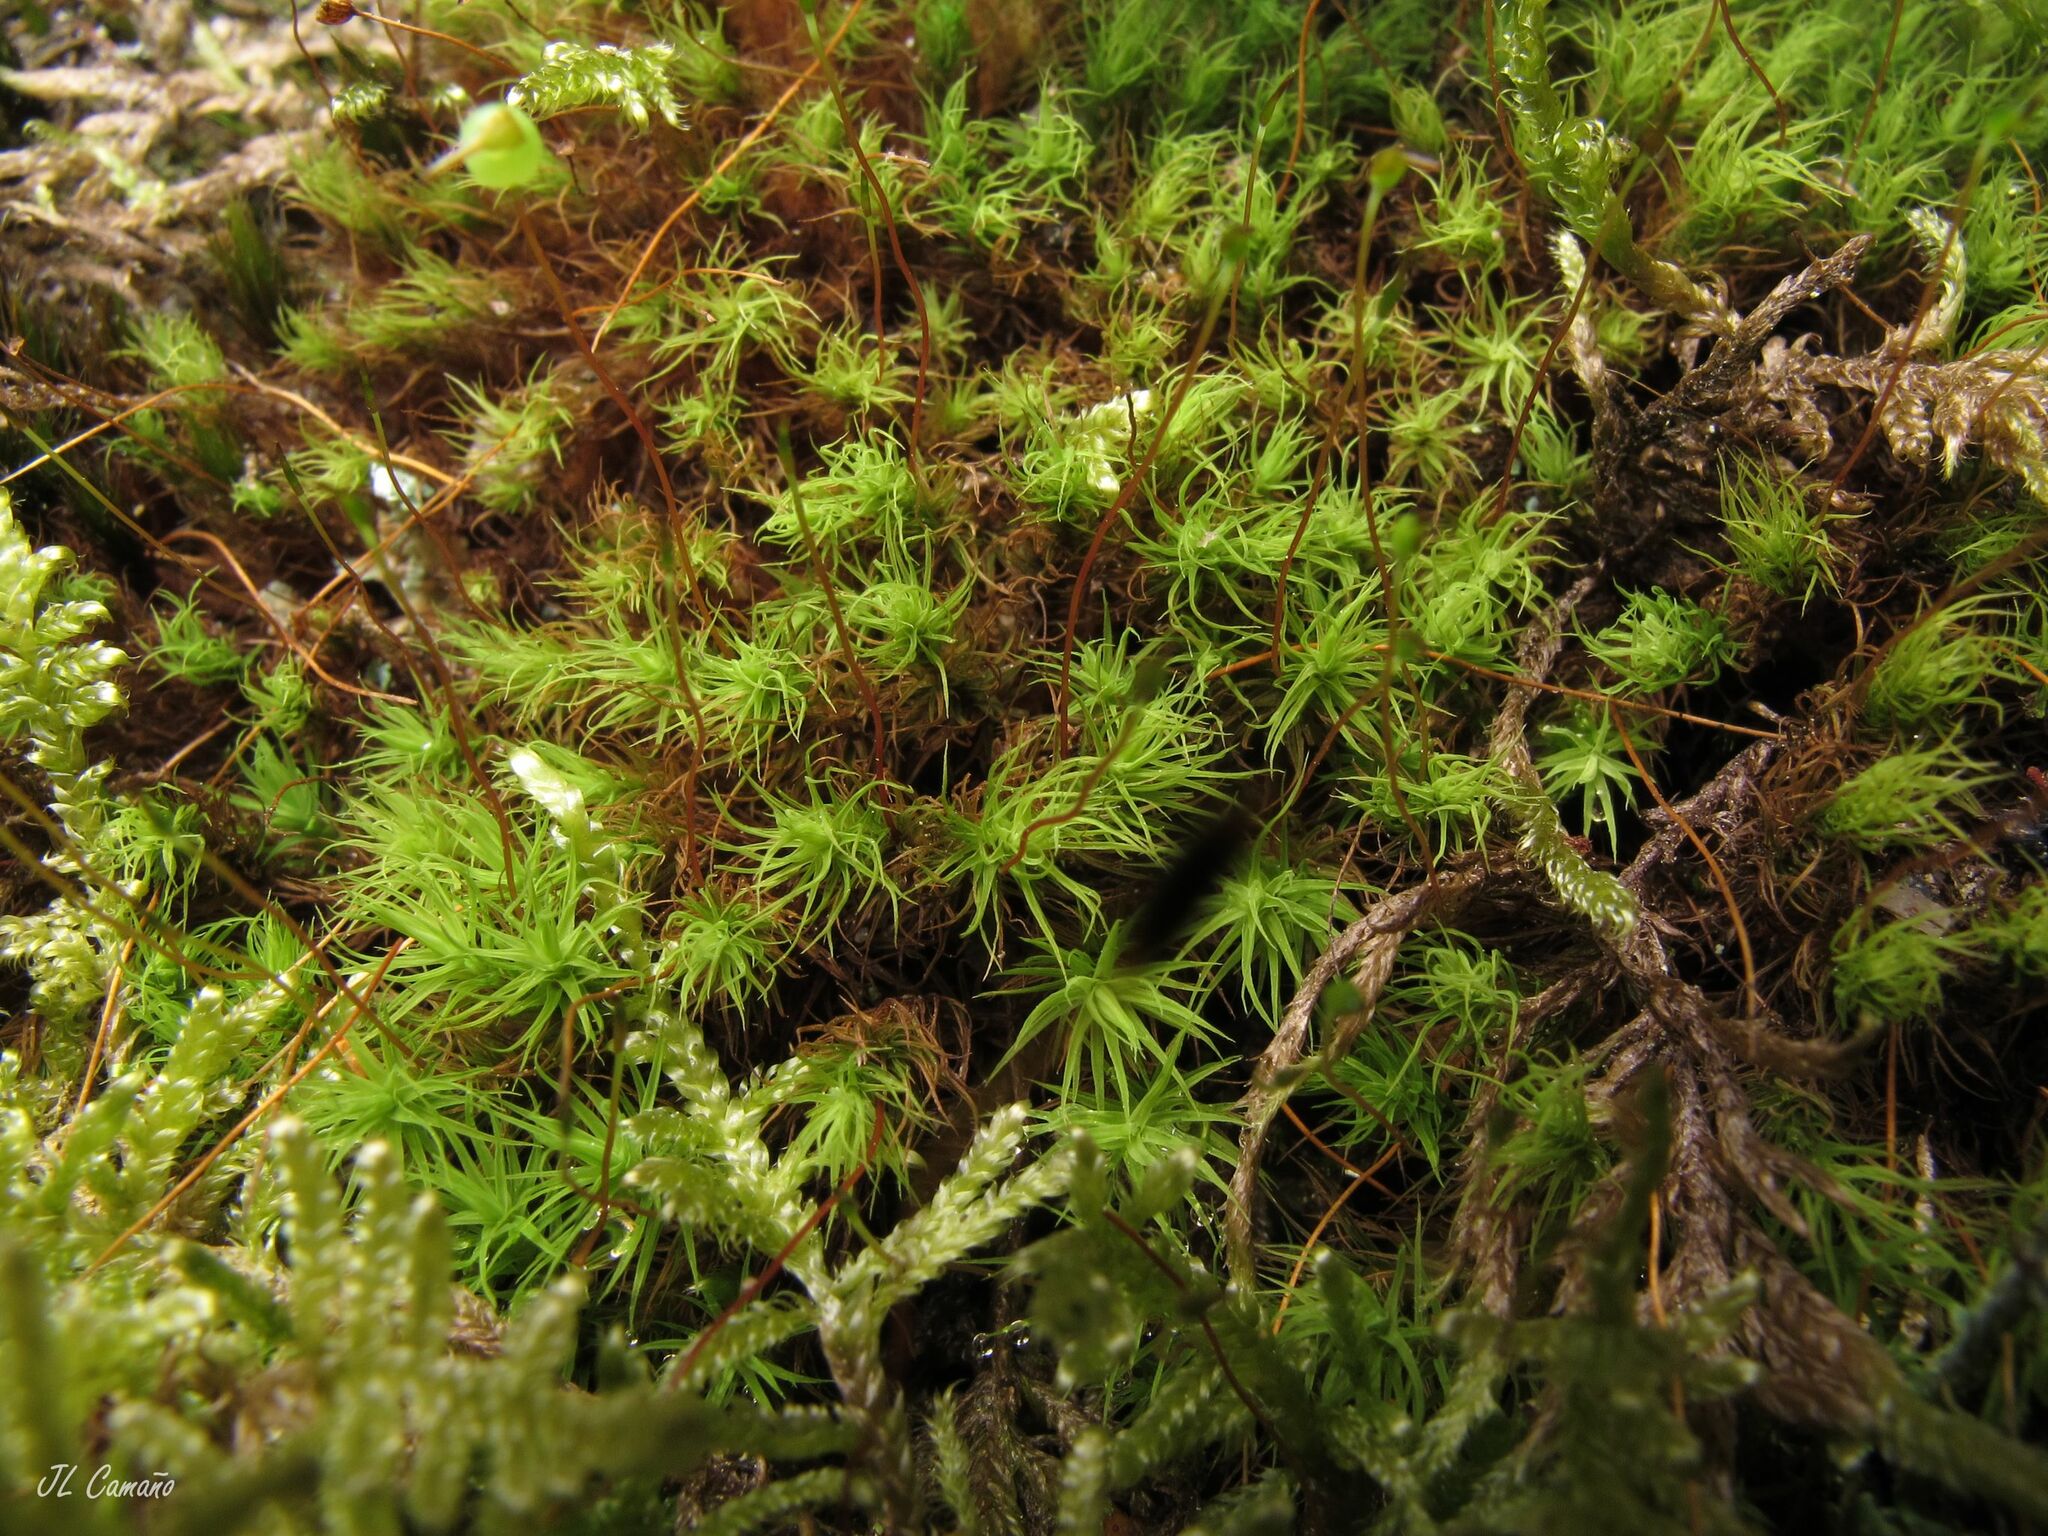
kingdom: Plantae
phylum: Bryophyta
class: Bryopsida
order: Bartramiales
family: Bartramiaceae
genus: Bartramia
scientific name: Bartramia ithyphylla
